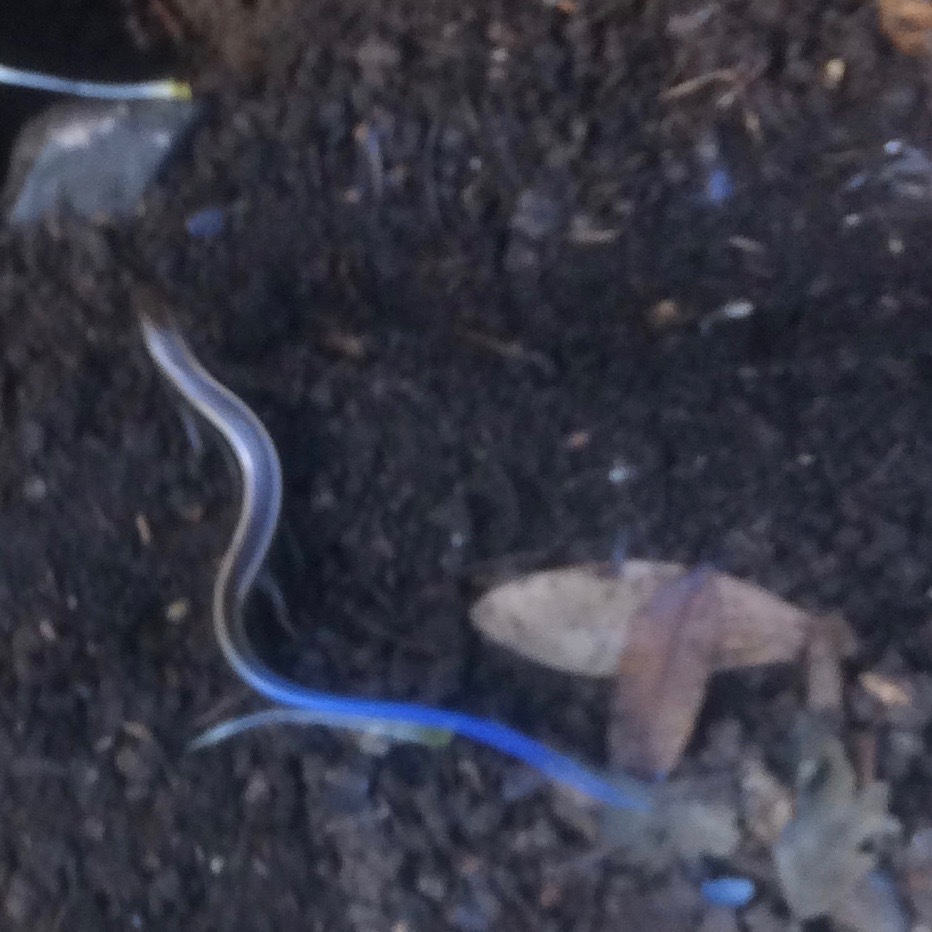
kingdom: Animalia
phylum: Chordata
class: Squamata
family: Scincidae
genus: Plestiodon
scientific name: Plestiodon skiltonianus
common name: Coronado island skink [interparietalis]
